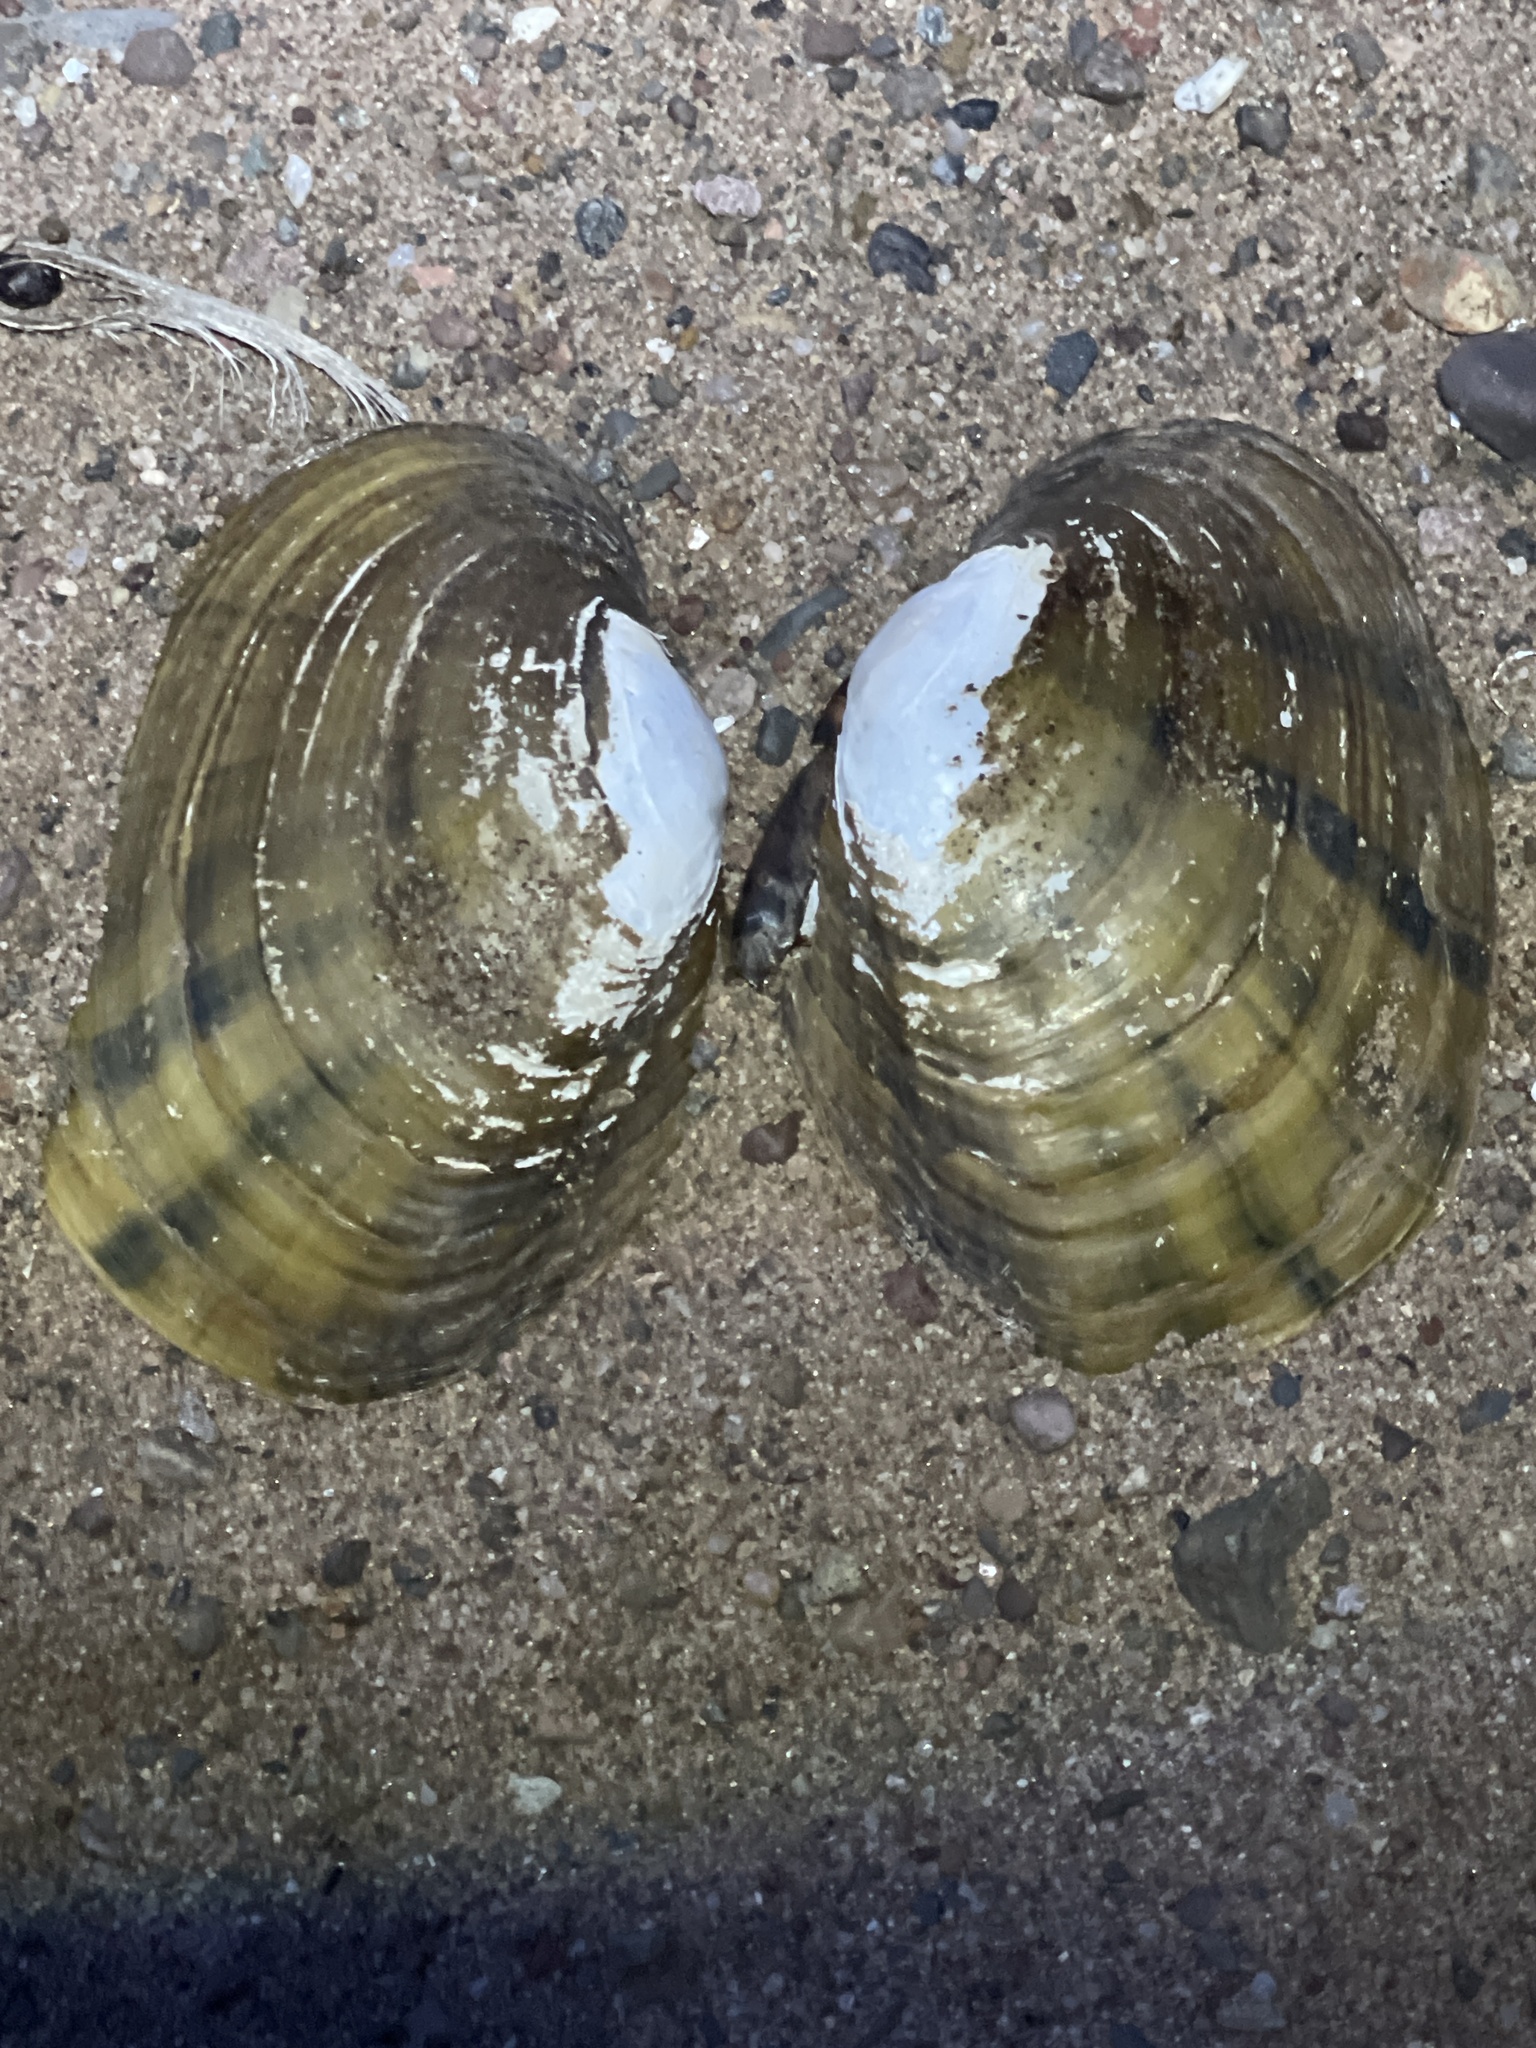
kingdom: Animalia
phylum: Mollusca
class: Bivalvia
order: Unionida
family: Unionidae
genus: Lampsilis
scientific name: Lampsilis cardium
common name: Plain pocketbook
